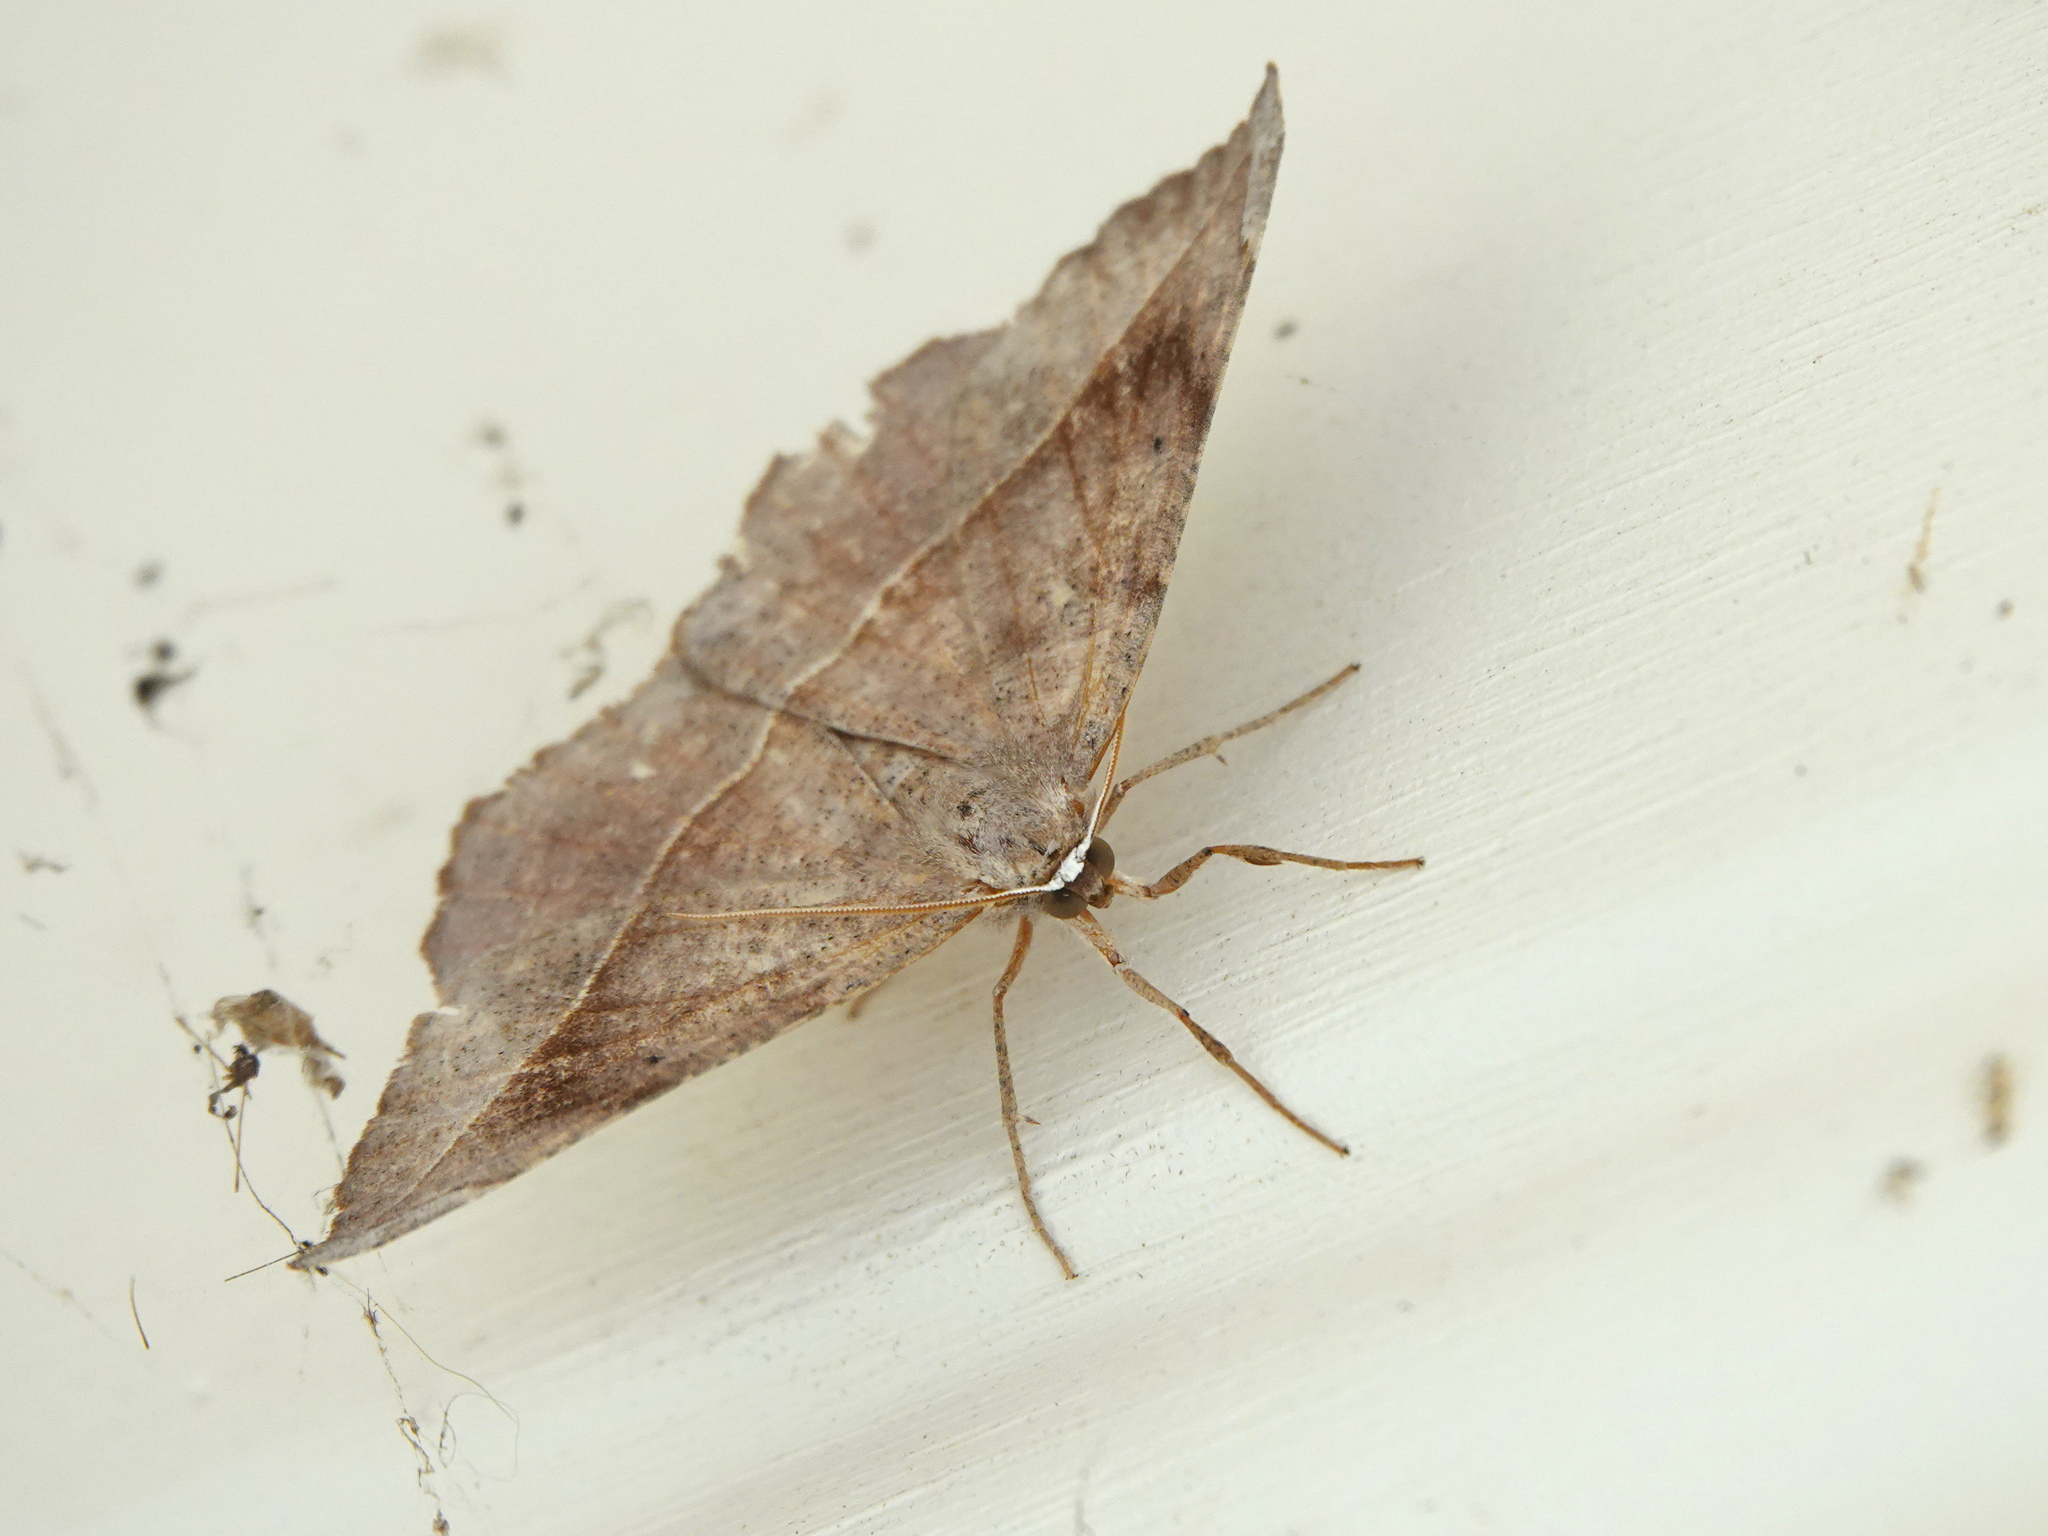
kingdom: Animalia
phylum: Arthropoda
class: Insecta
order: Lepidoptera
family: Geometridae
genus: Eutrapela
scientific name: Eutrapela clemataria
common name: Curved-toothed geometer
